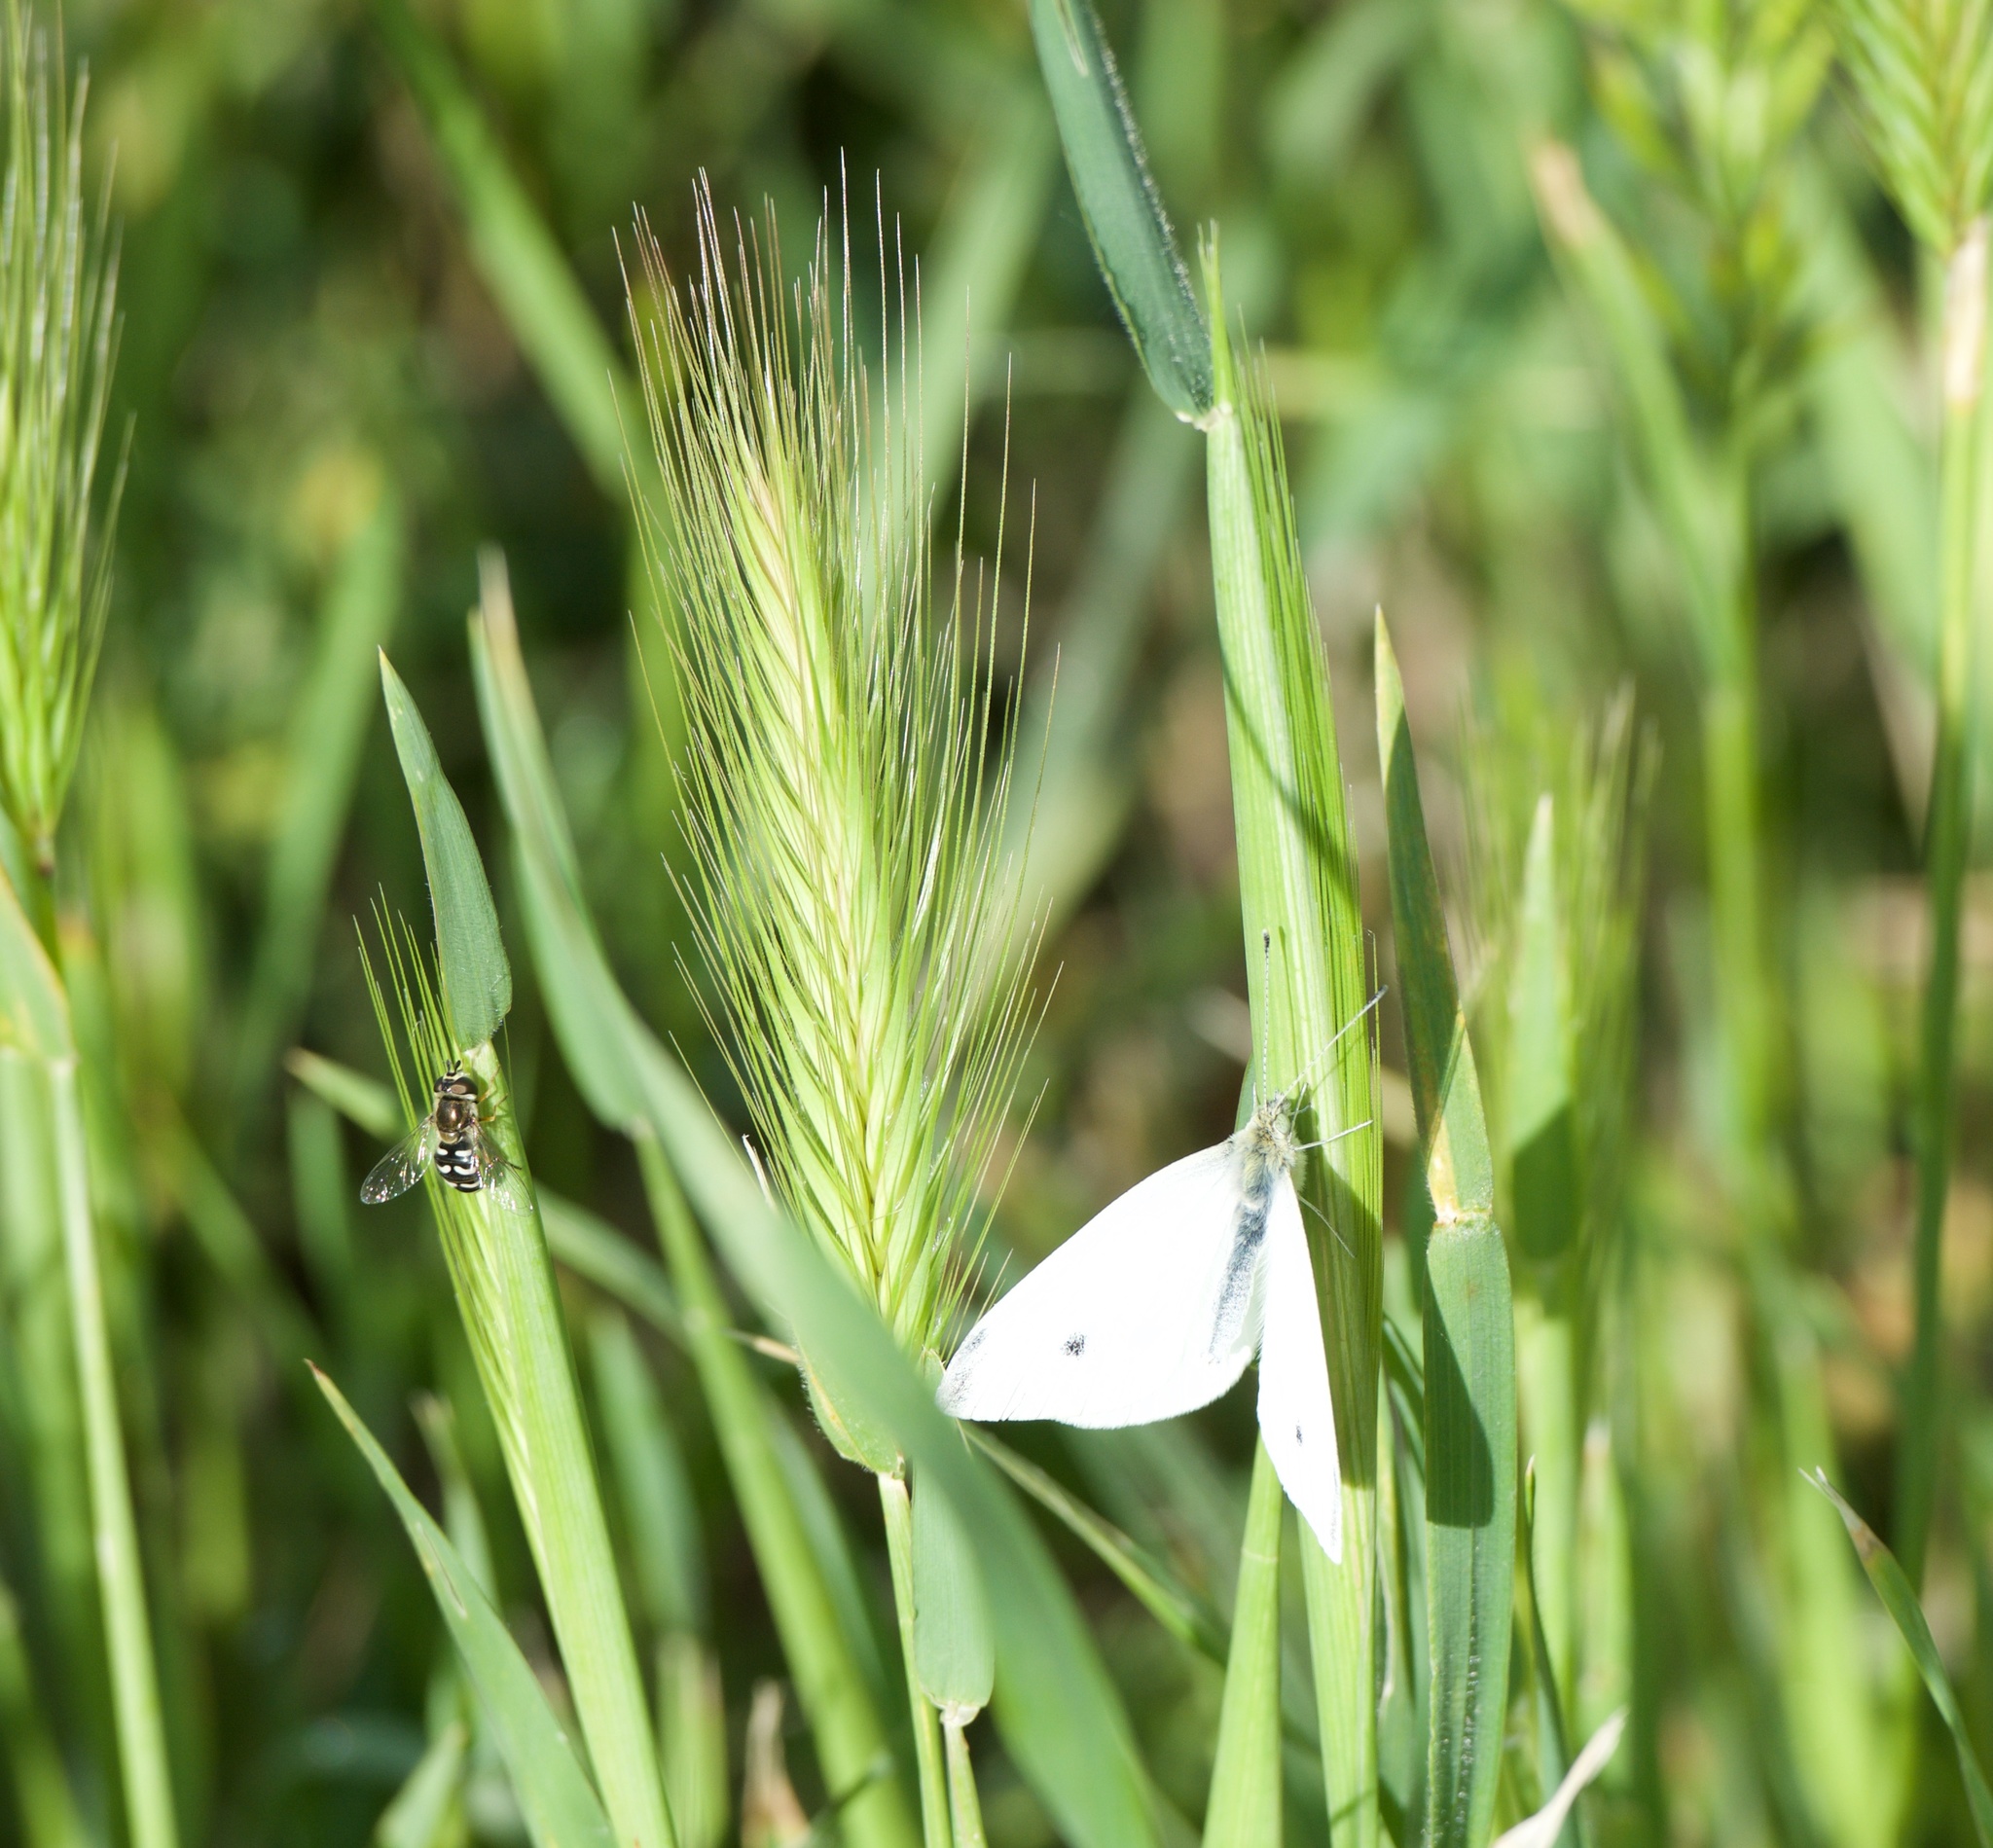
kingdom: Animalia
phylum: Arthropoda
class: Insecta
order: Lepidoptera
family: Pieridae
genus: Pieris
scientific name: Pieris rapae
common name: Small white
